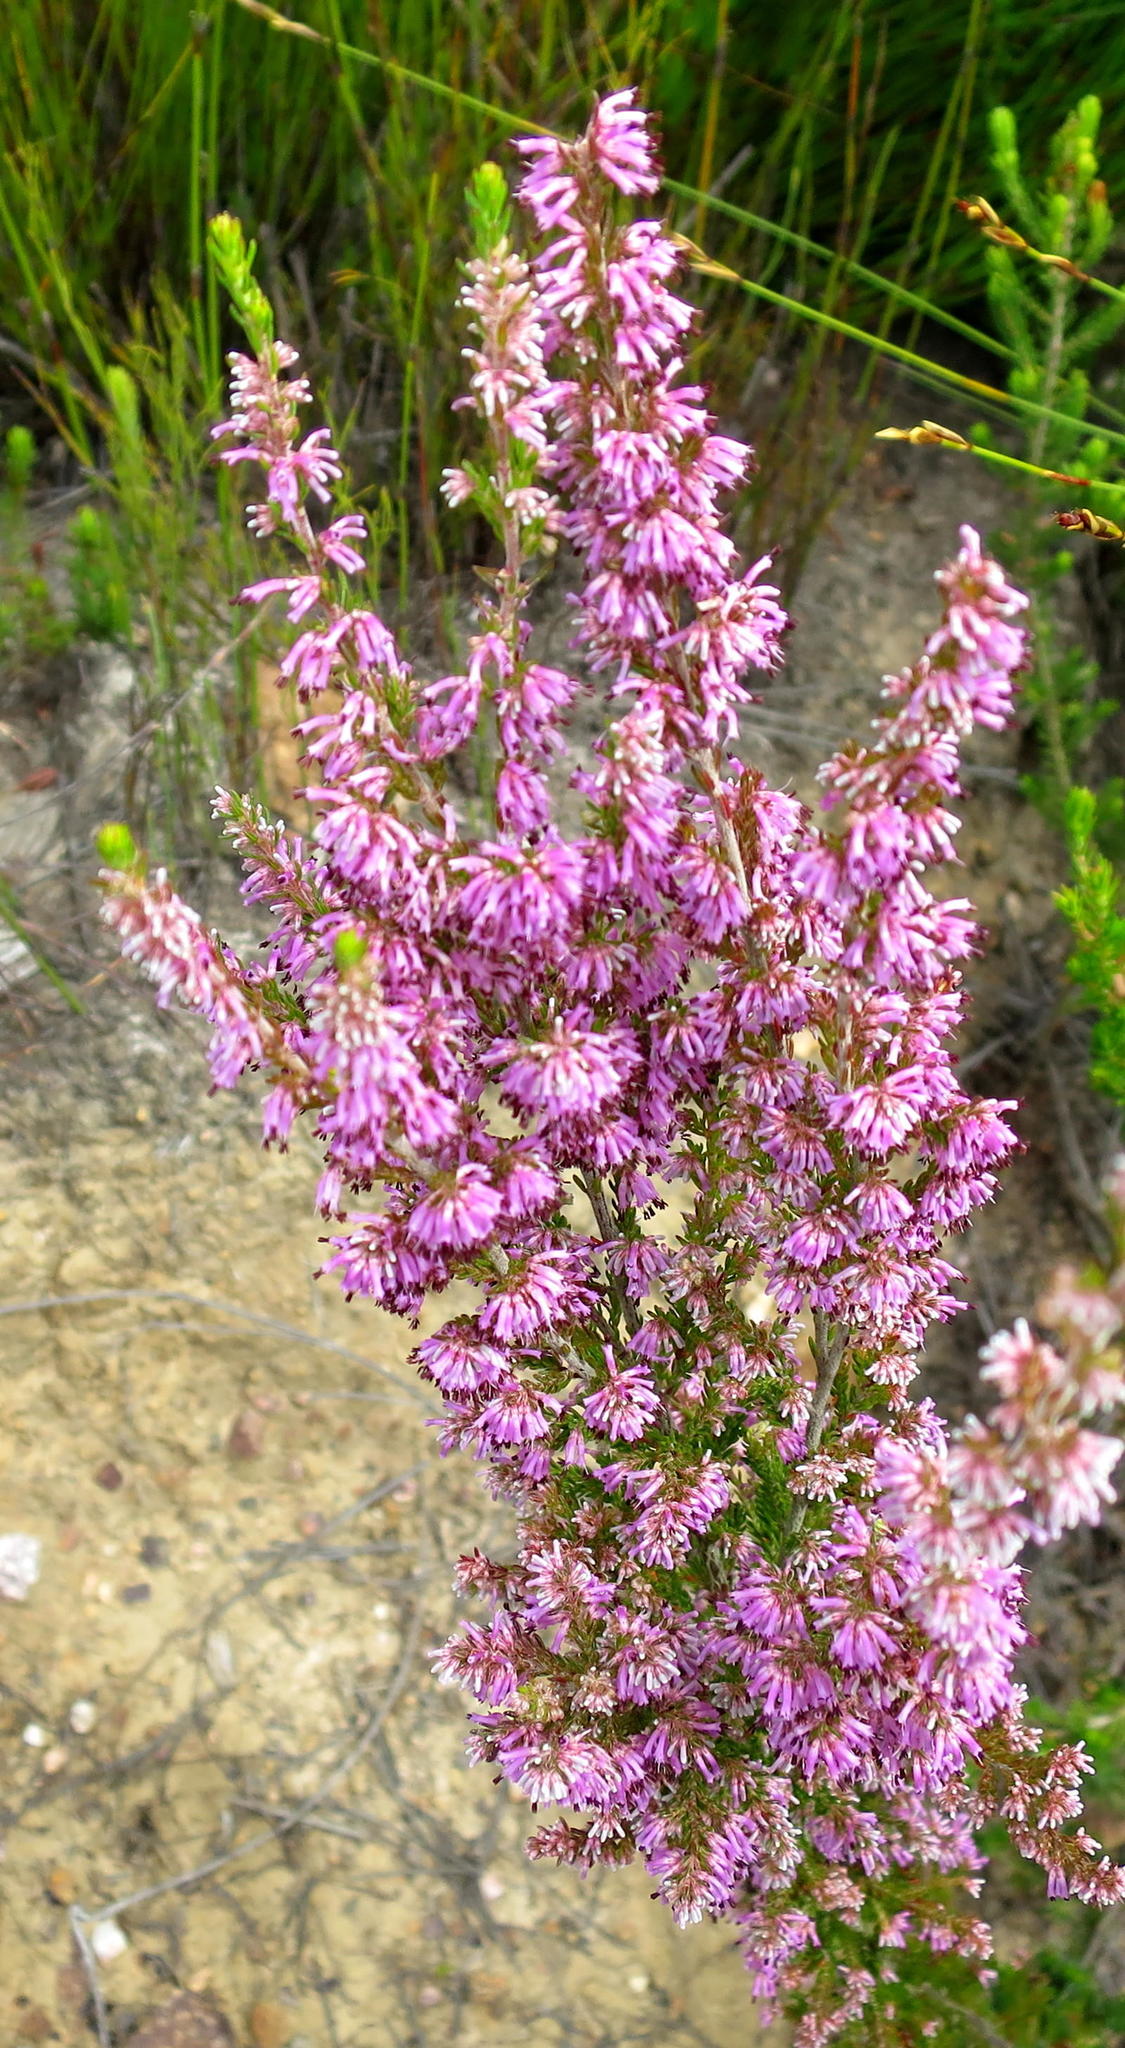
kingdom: Plantae
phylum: Tracheophyta
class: Magnoliopsida
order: Ericales
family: Ericaceae
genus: Erica
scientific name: Erica uberiflora
